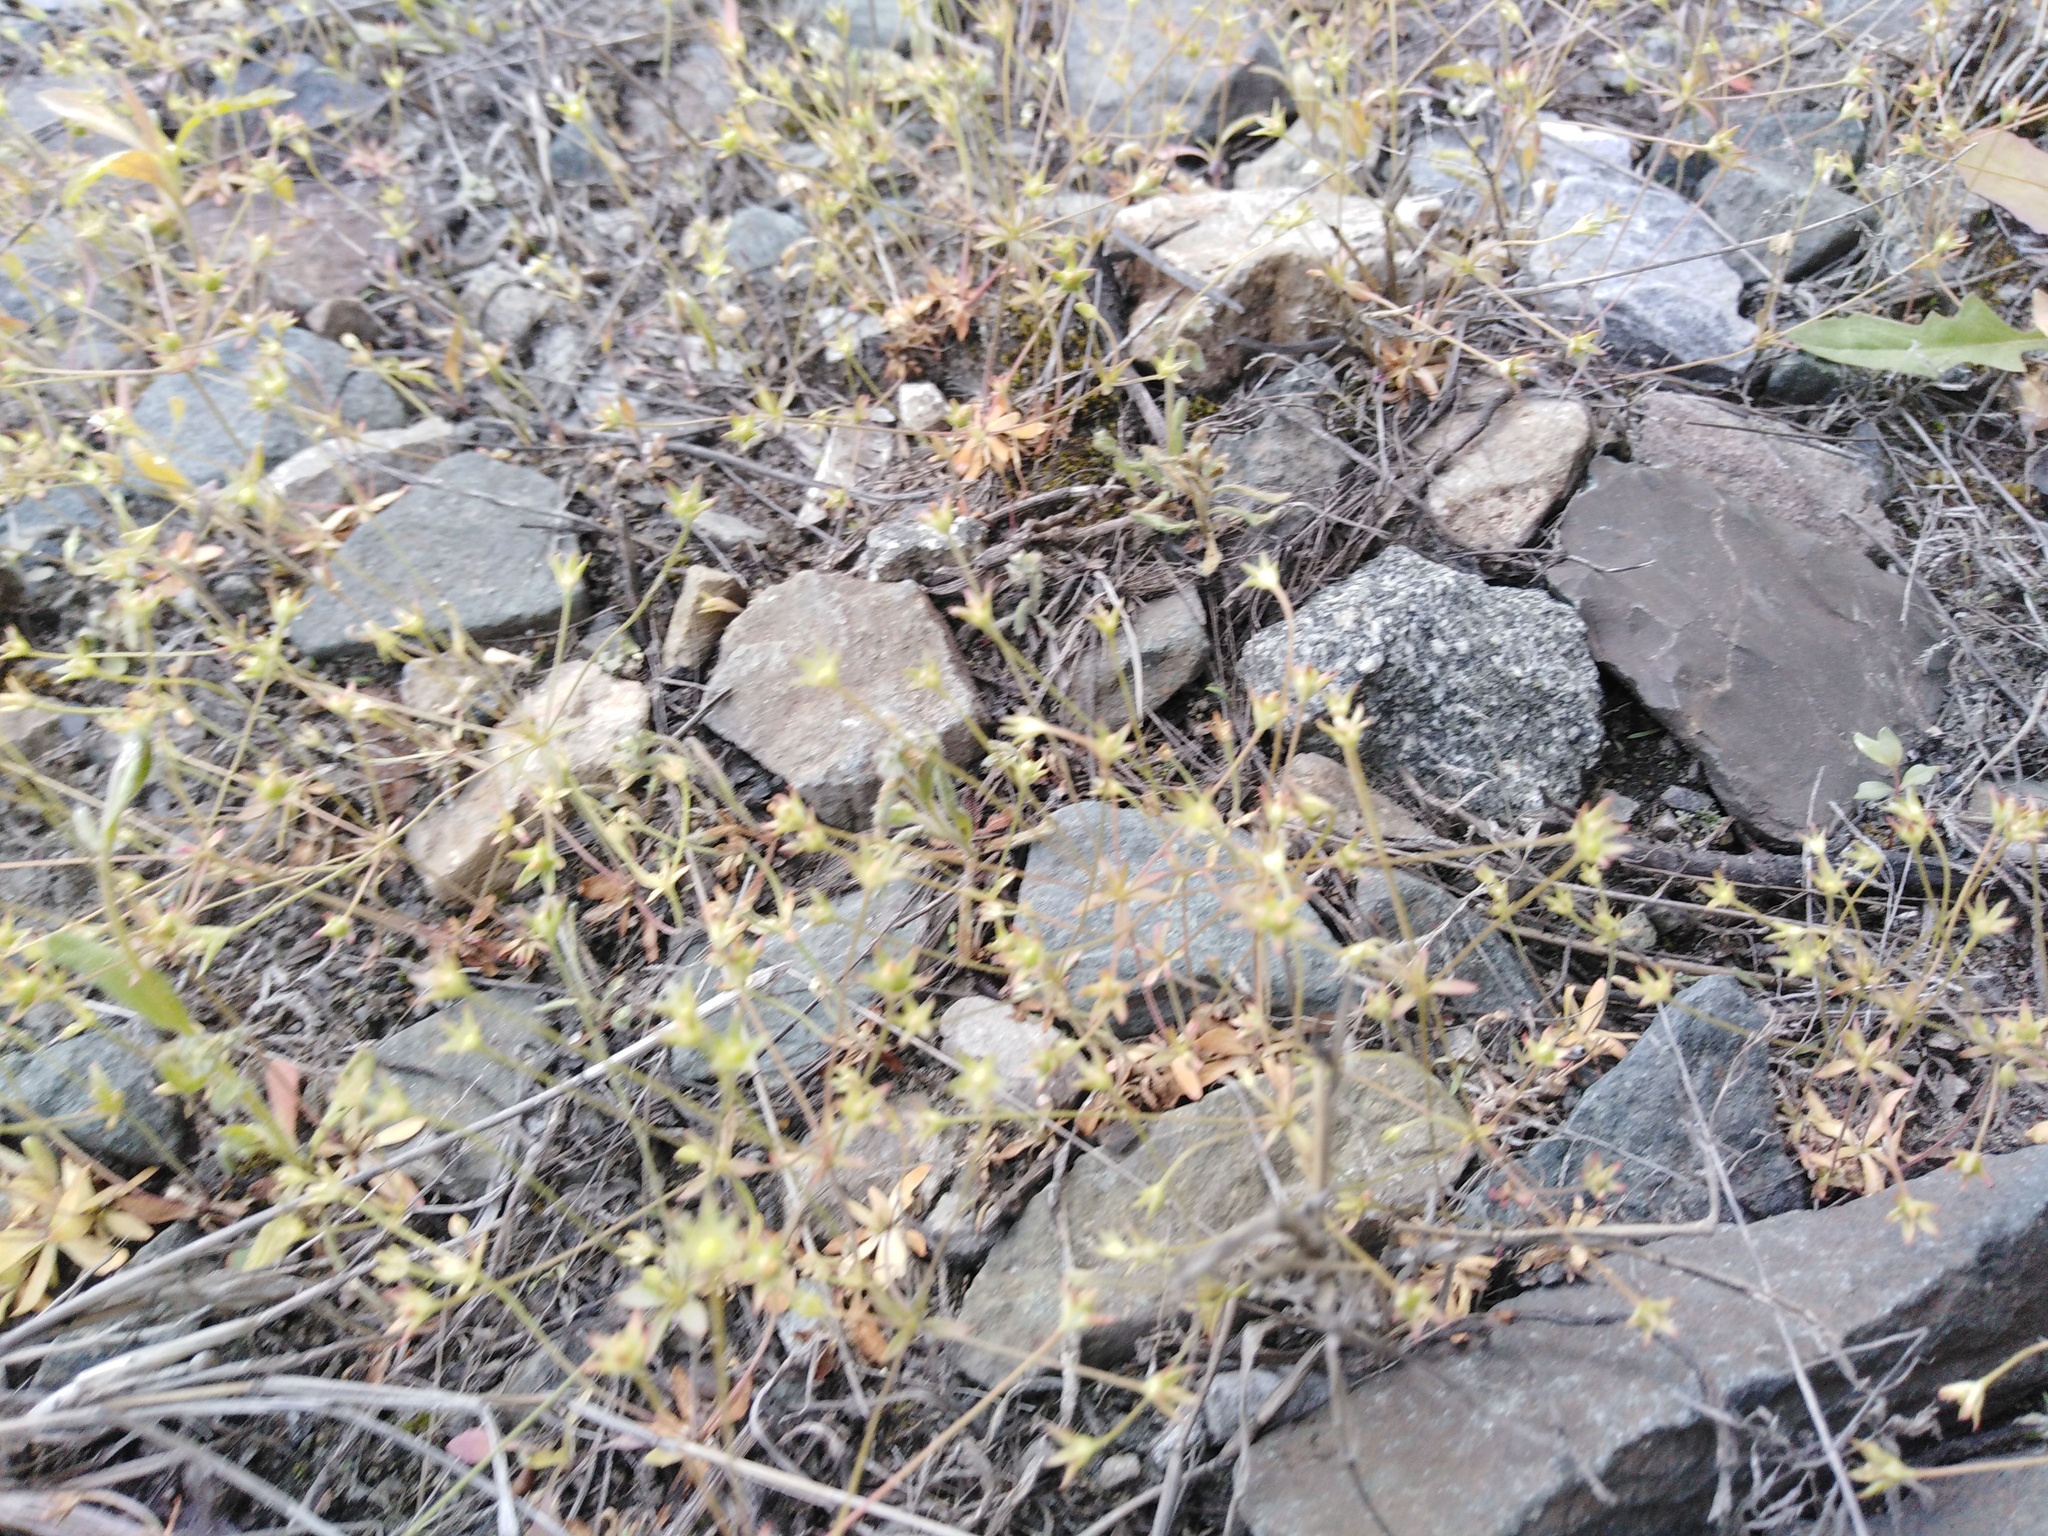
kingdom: Plantae
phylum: Tracheophyta
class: Magnoliopsida
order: Ericales
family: Primulaceae
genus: Androsace
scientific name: Androsace elongata
